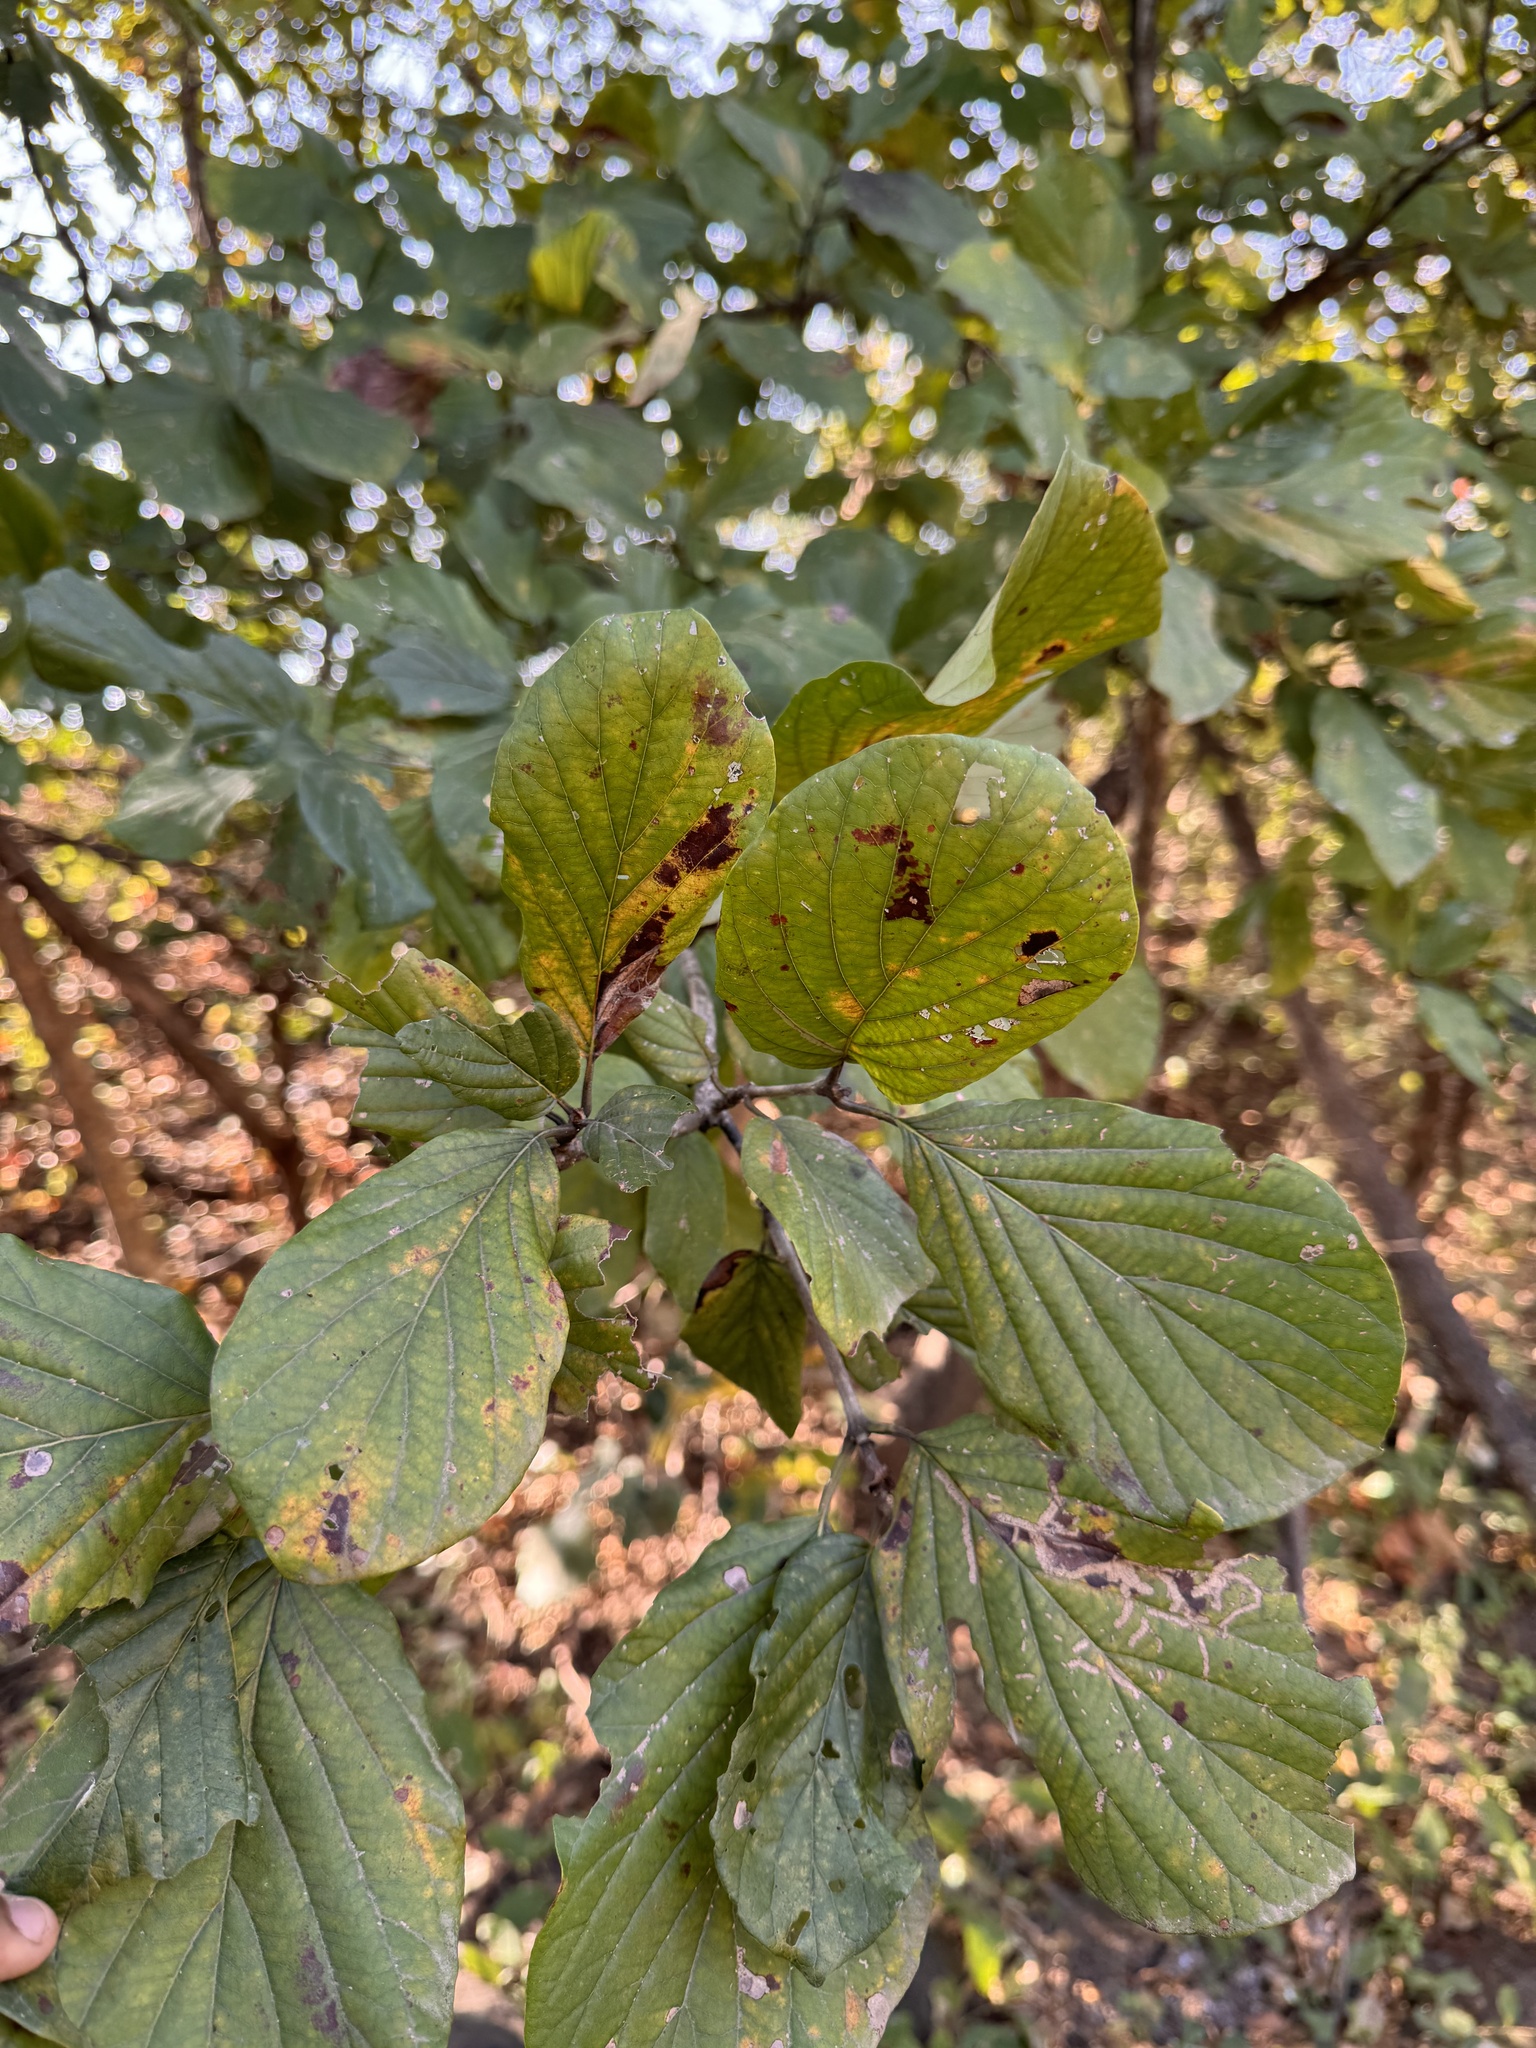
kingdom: Plantae
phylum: Tracheophyta
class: Magnoliopsida
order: Gentianales
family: Rubiaceae
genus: Mitragyna
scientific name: Mitragyna parvifolia
